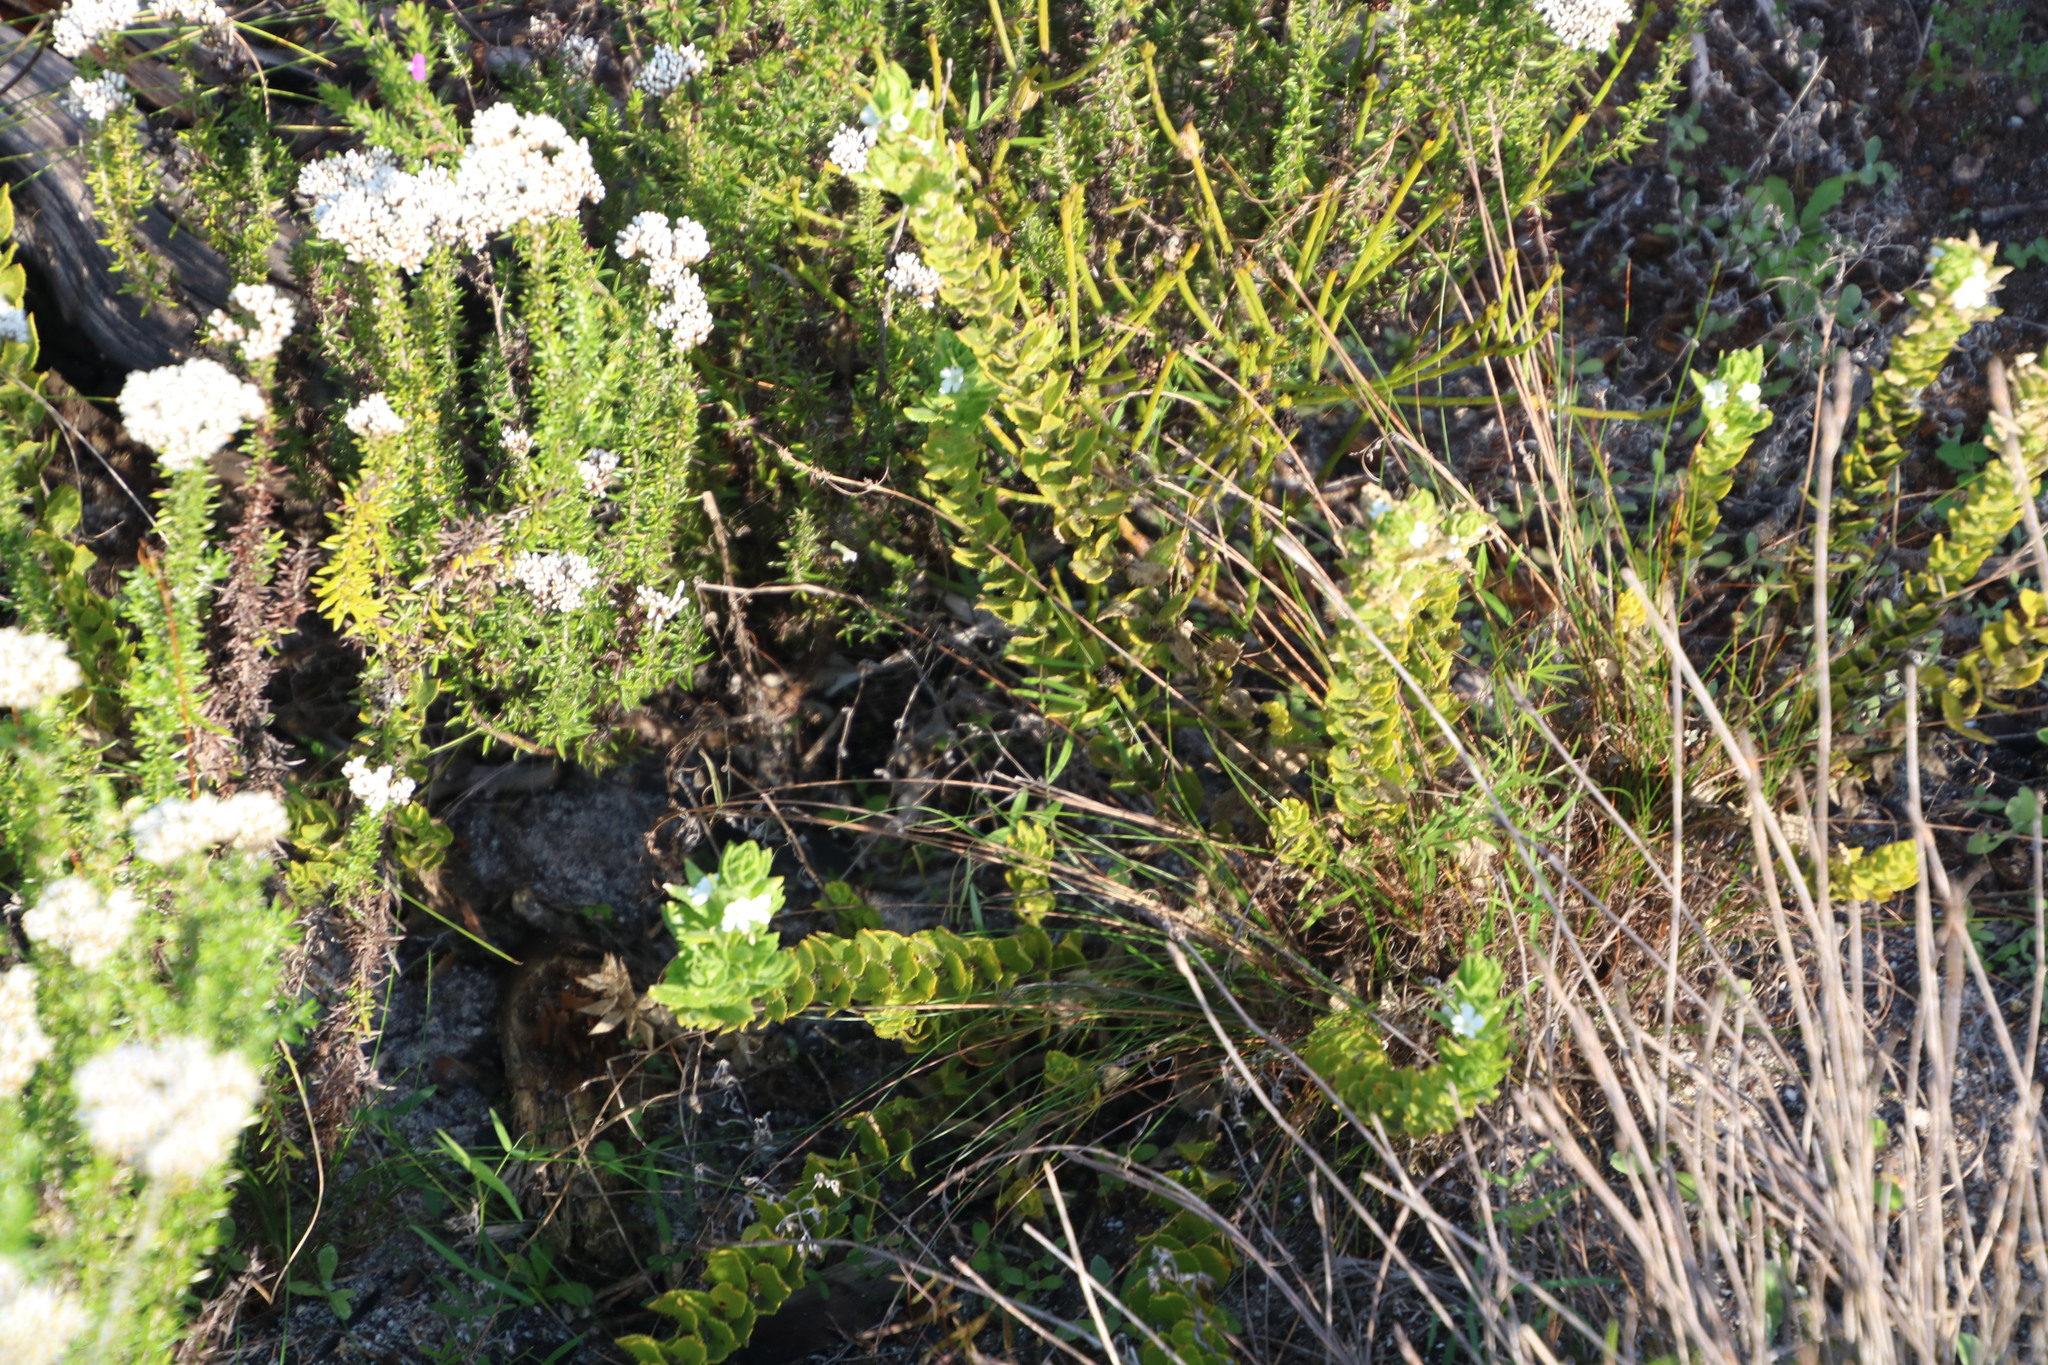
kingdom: Plantae
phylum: Tracheophyta
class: Magnoliopsida
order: Lamiales
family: Scrophulariaceae
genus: Oftia
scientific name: Oftia africana
